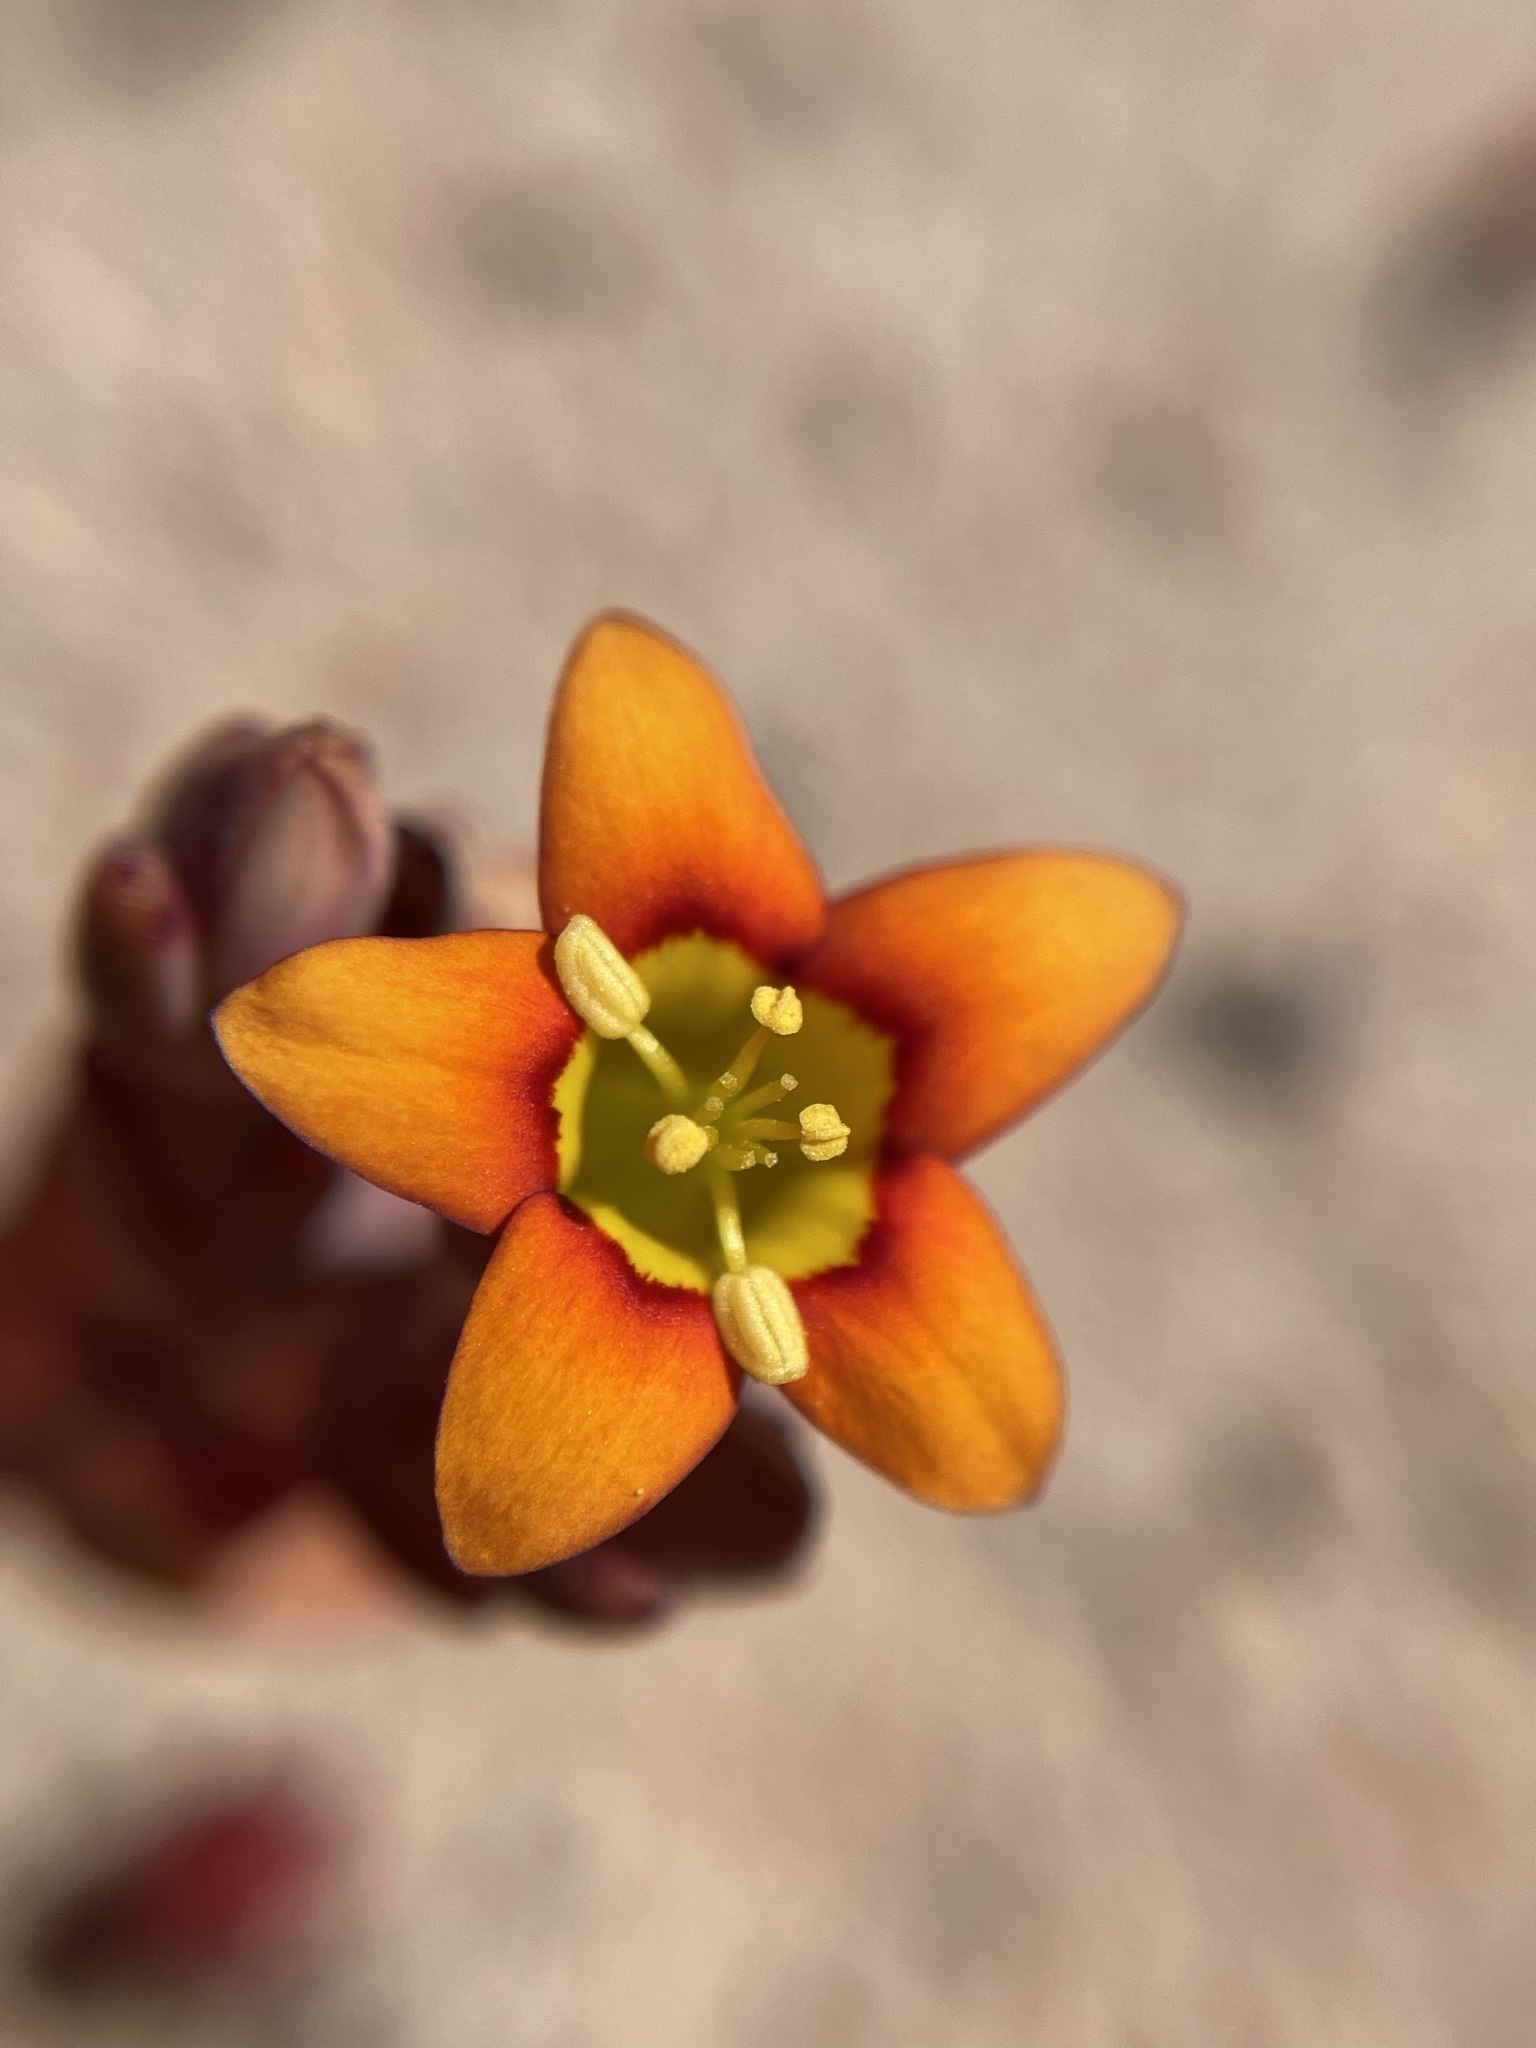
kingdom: Plantae
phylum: Tracheophyta
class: Magnoliopsida
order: Saxifragales
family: Crassulaceae
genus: Crassula
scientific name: Crassula dichotoma
